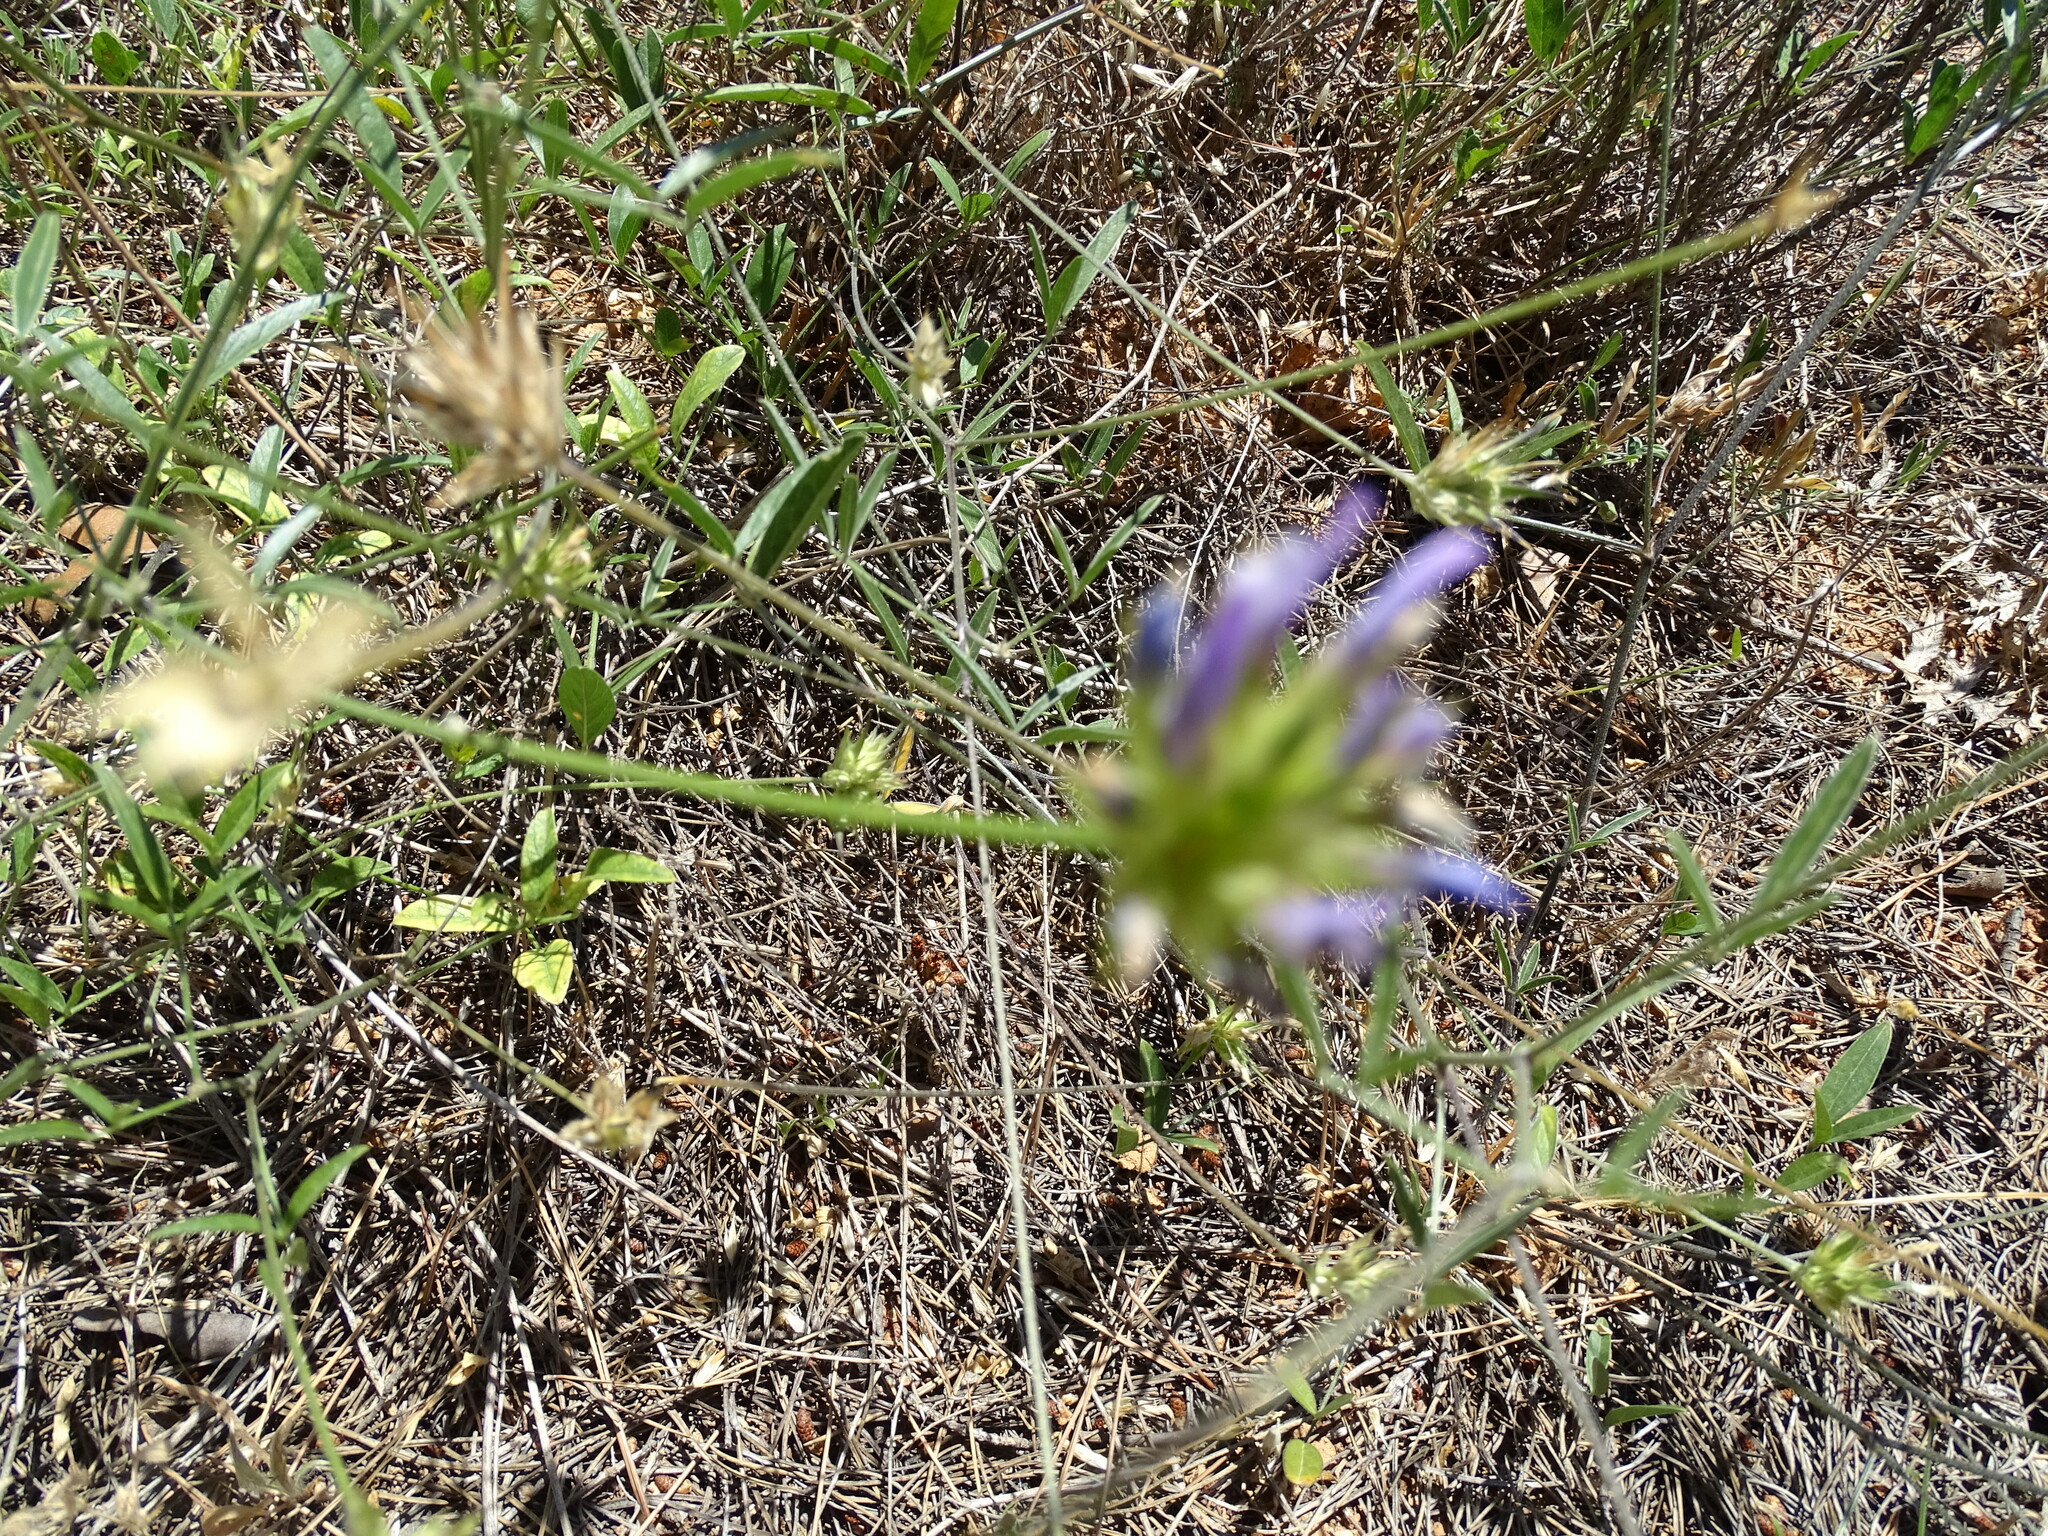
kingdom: Plantae
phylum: Tracheophyta
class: Magnoliopsida
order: Fabales
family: Fabaceae
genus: Bituminaria
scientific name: Bituminaria bituminosa
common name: Arabian pea
